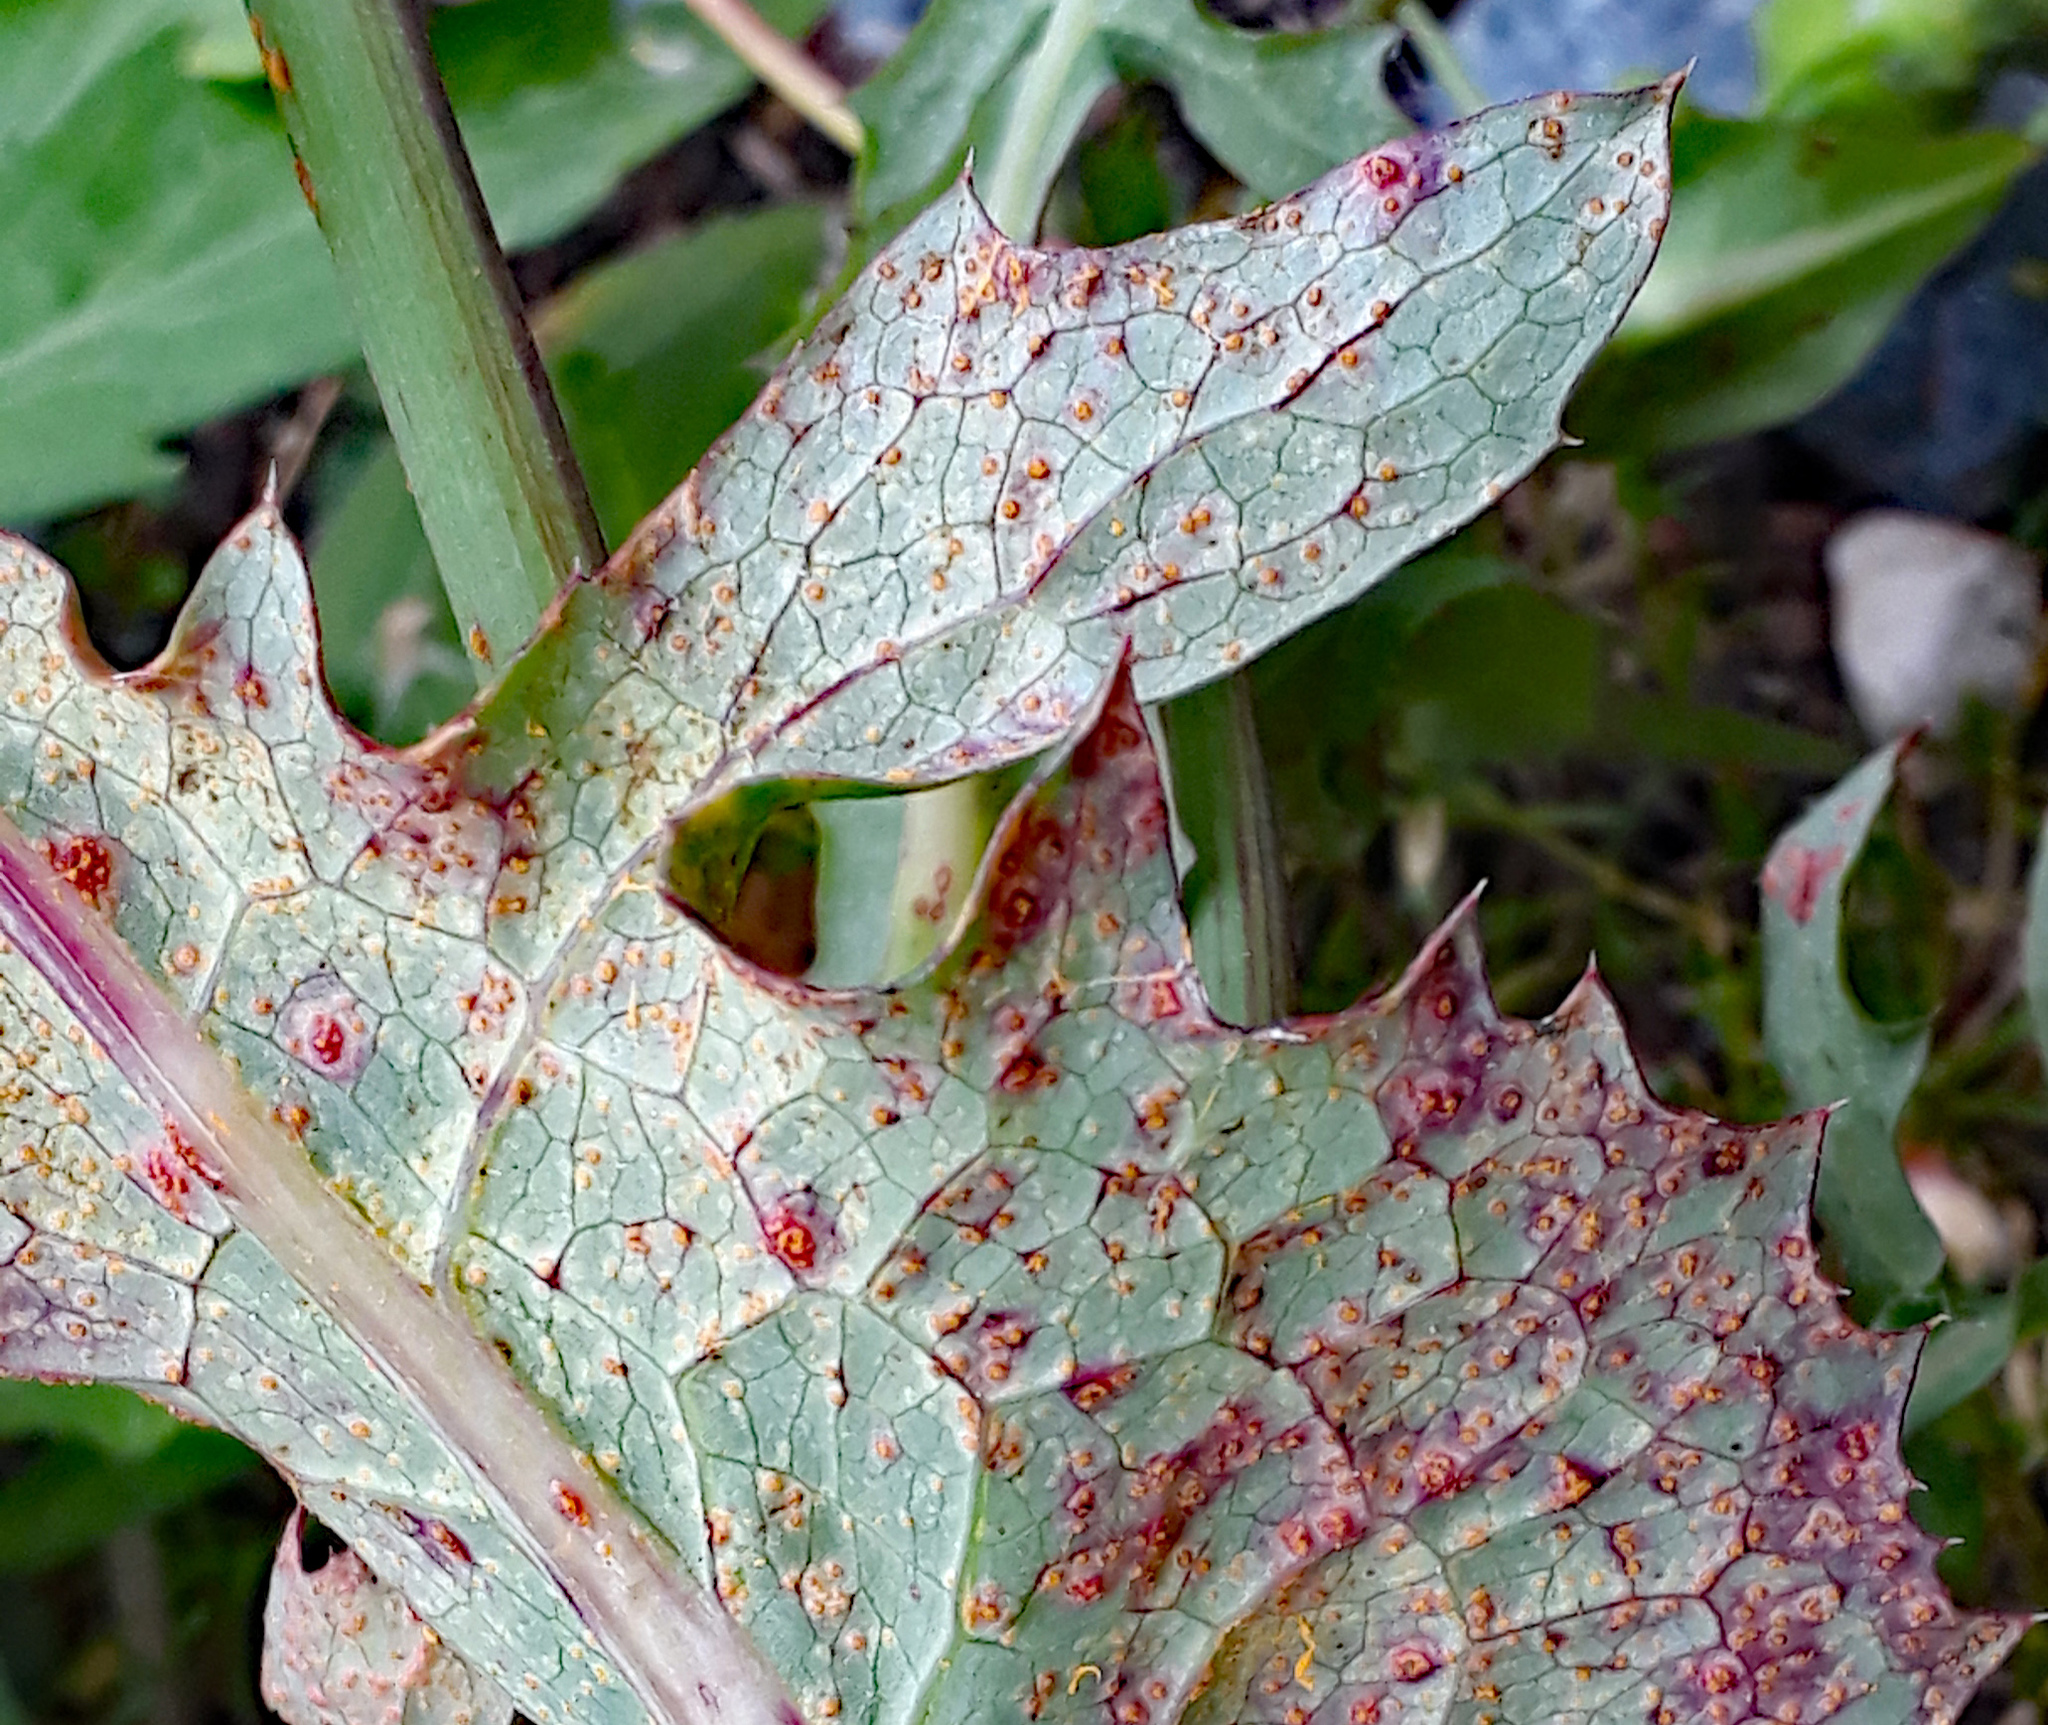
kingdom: Fungi
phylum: Basidiomycota
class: Pucciniomycetes
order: Pucciniales
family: Pucciniaceae
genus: Peristemma
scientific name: Peristemma pseudosphaeria
